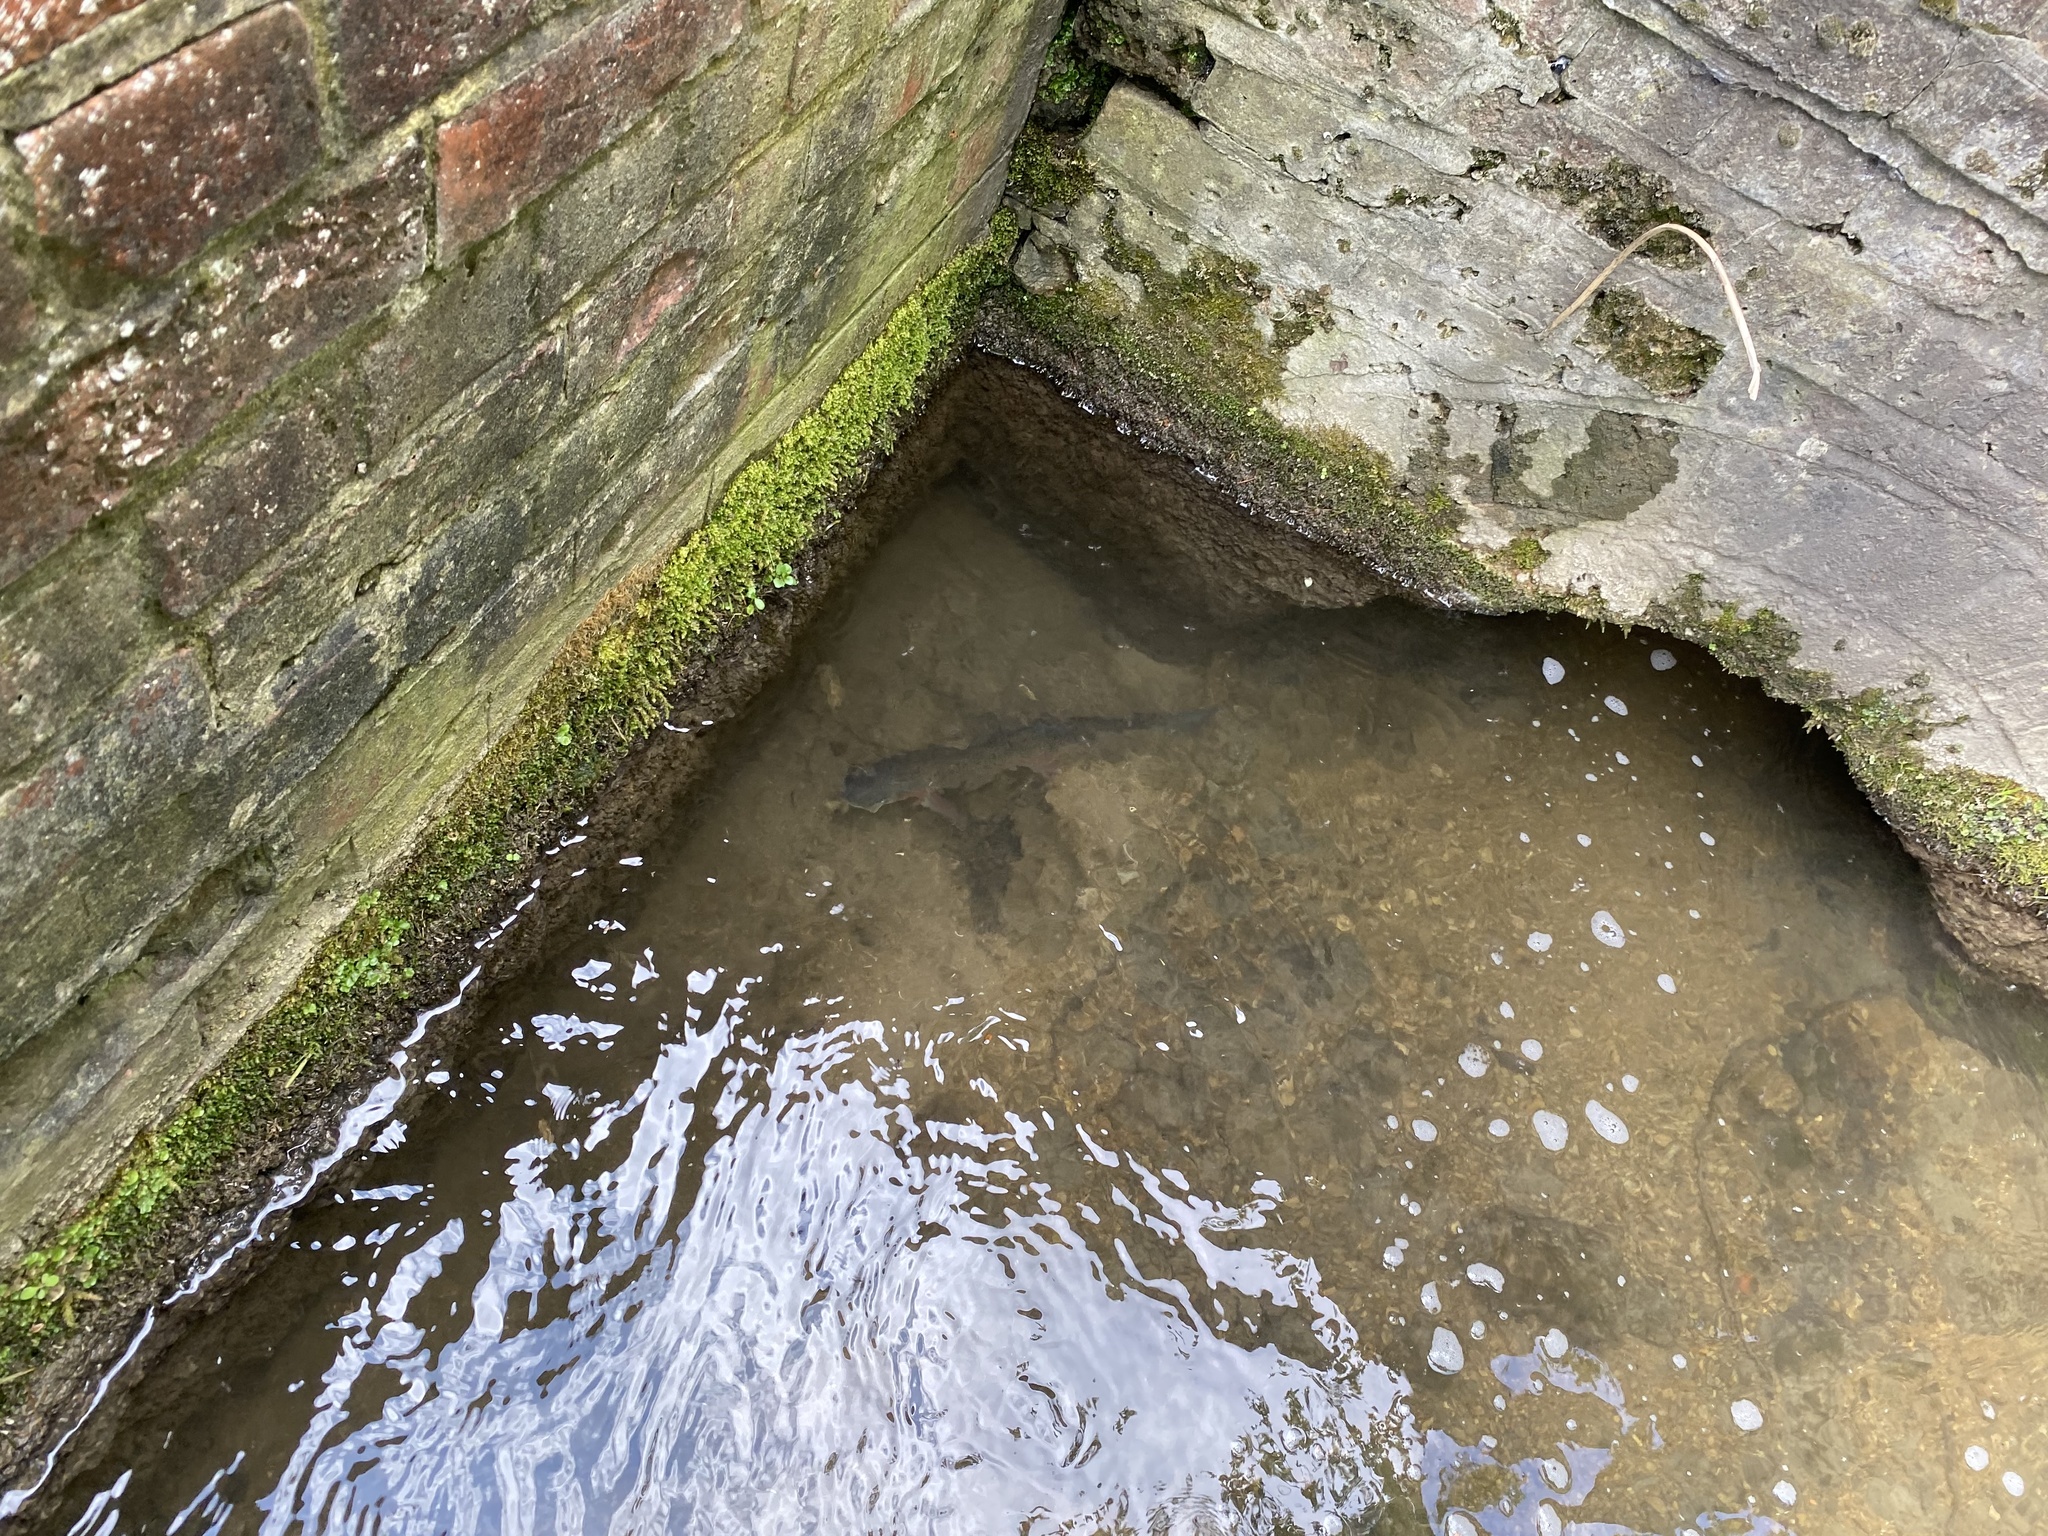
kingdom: Animalia
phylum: Chordata
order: Salmoniformes
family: Salmonidae
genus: Oncorhynchus
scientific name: Oncorhynchus mykiss
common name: Rainbow trout
